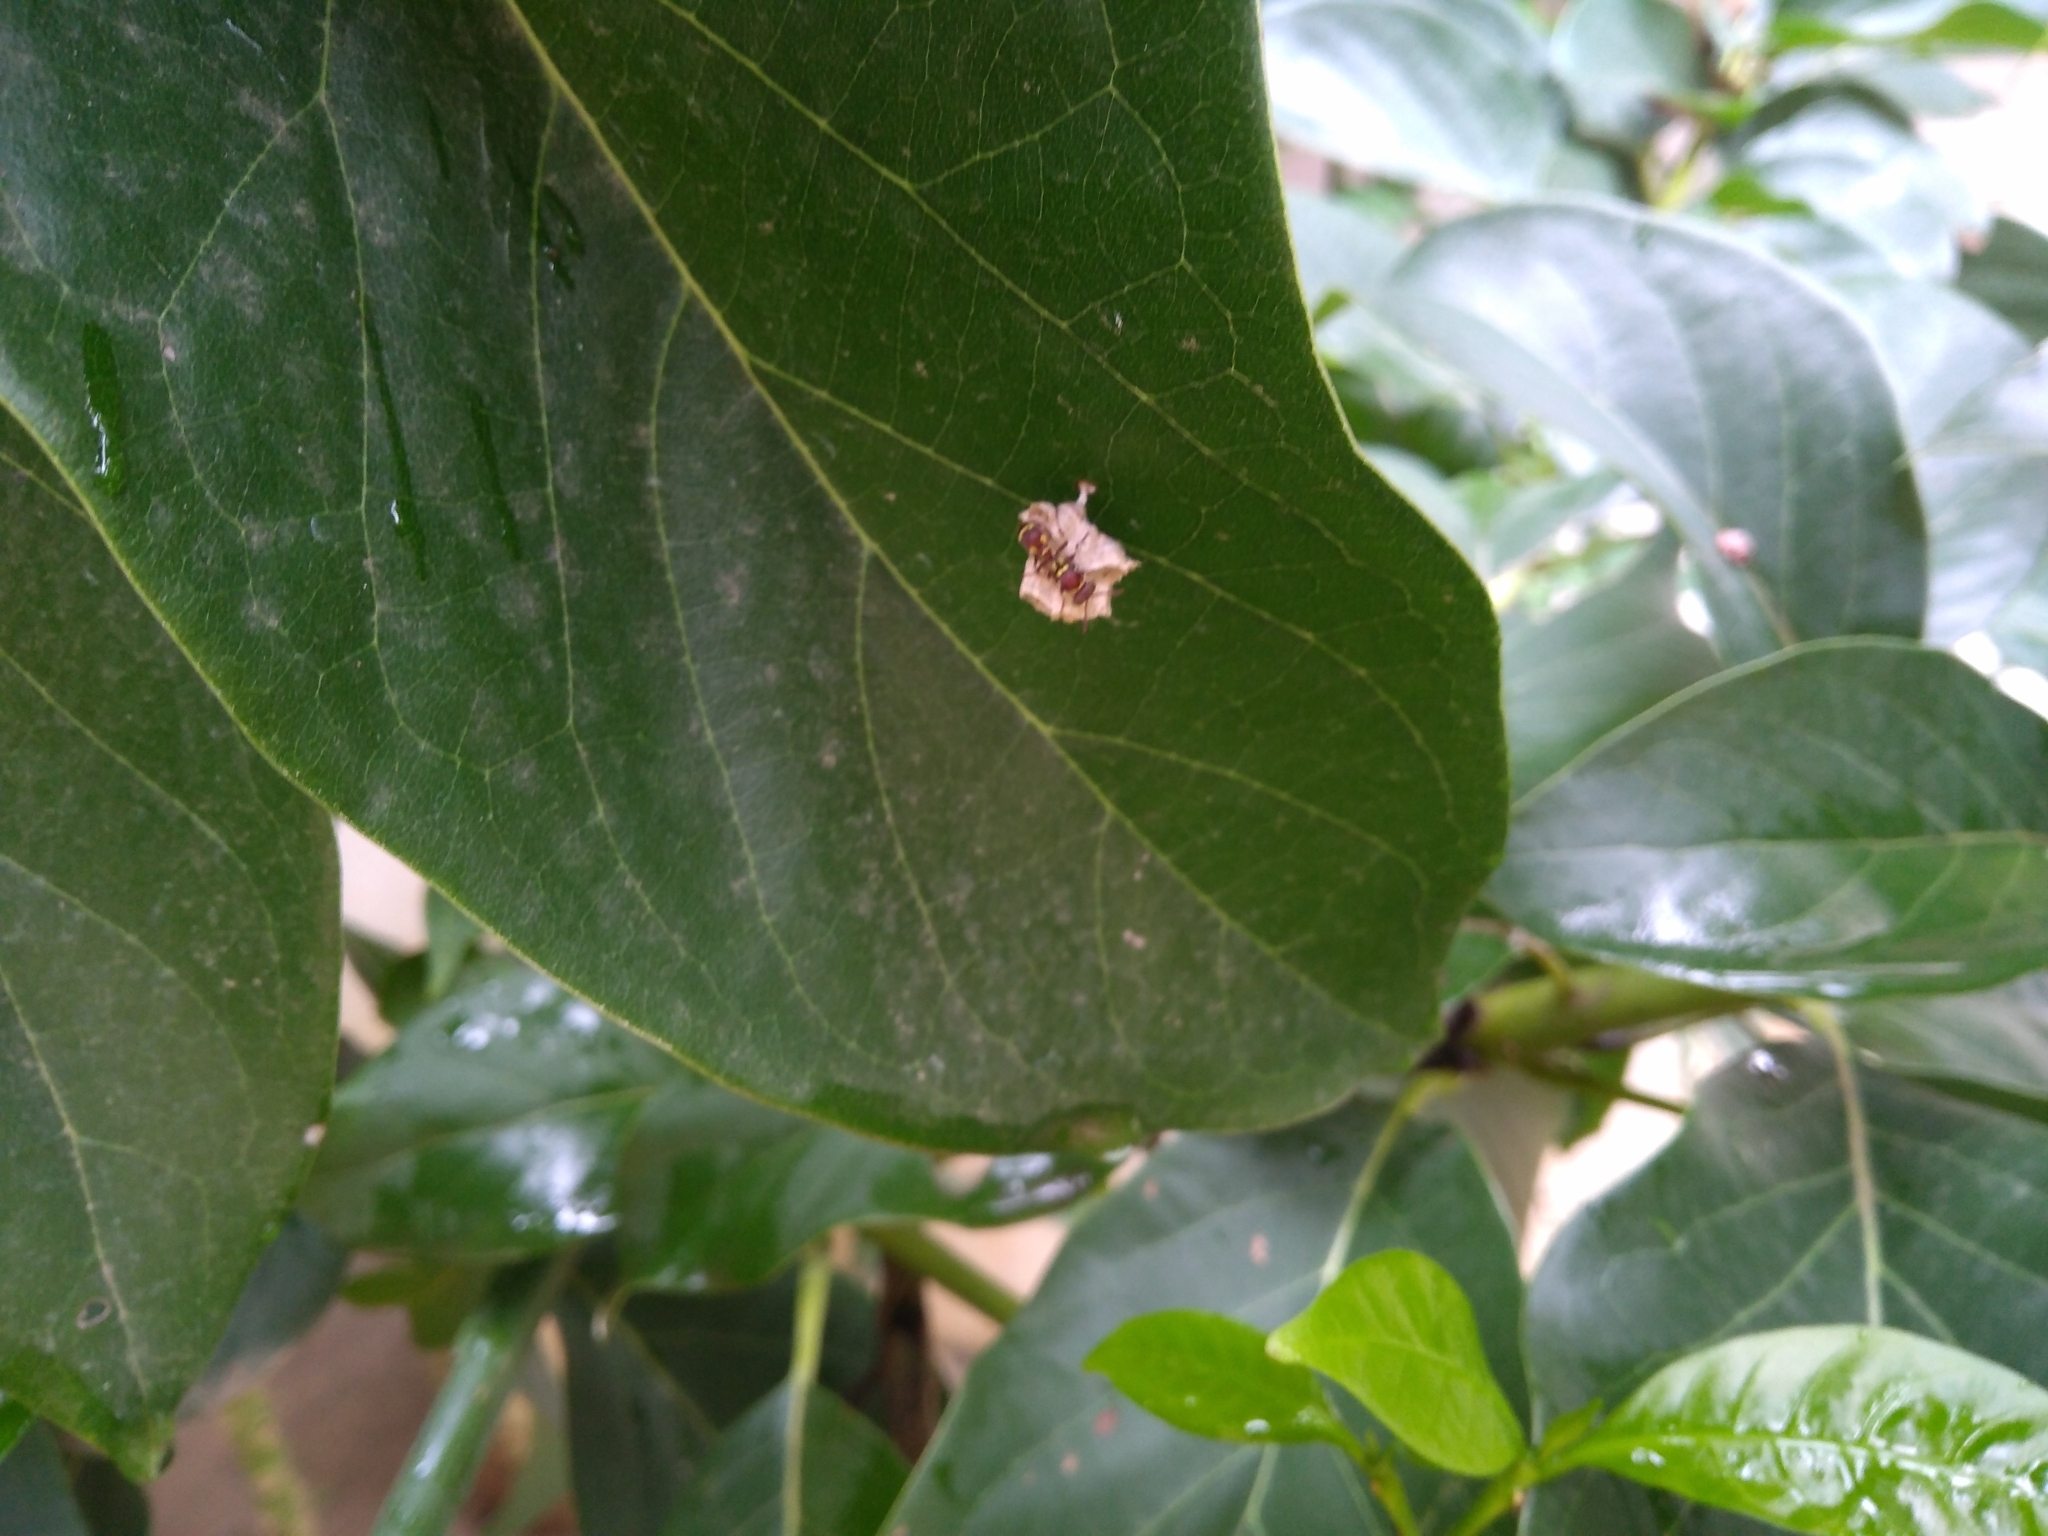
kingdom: Animalia
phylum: Arthropoda
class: Insecta
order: Hymenoptera
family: Vespidae
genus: Ropalidia
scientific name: Ropalidia cyathiformis
